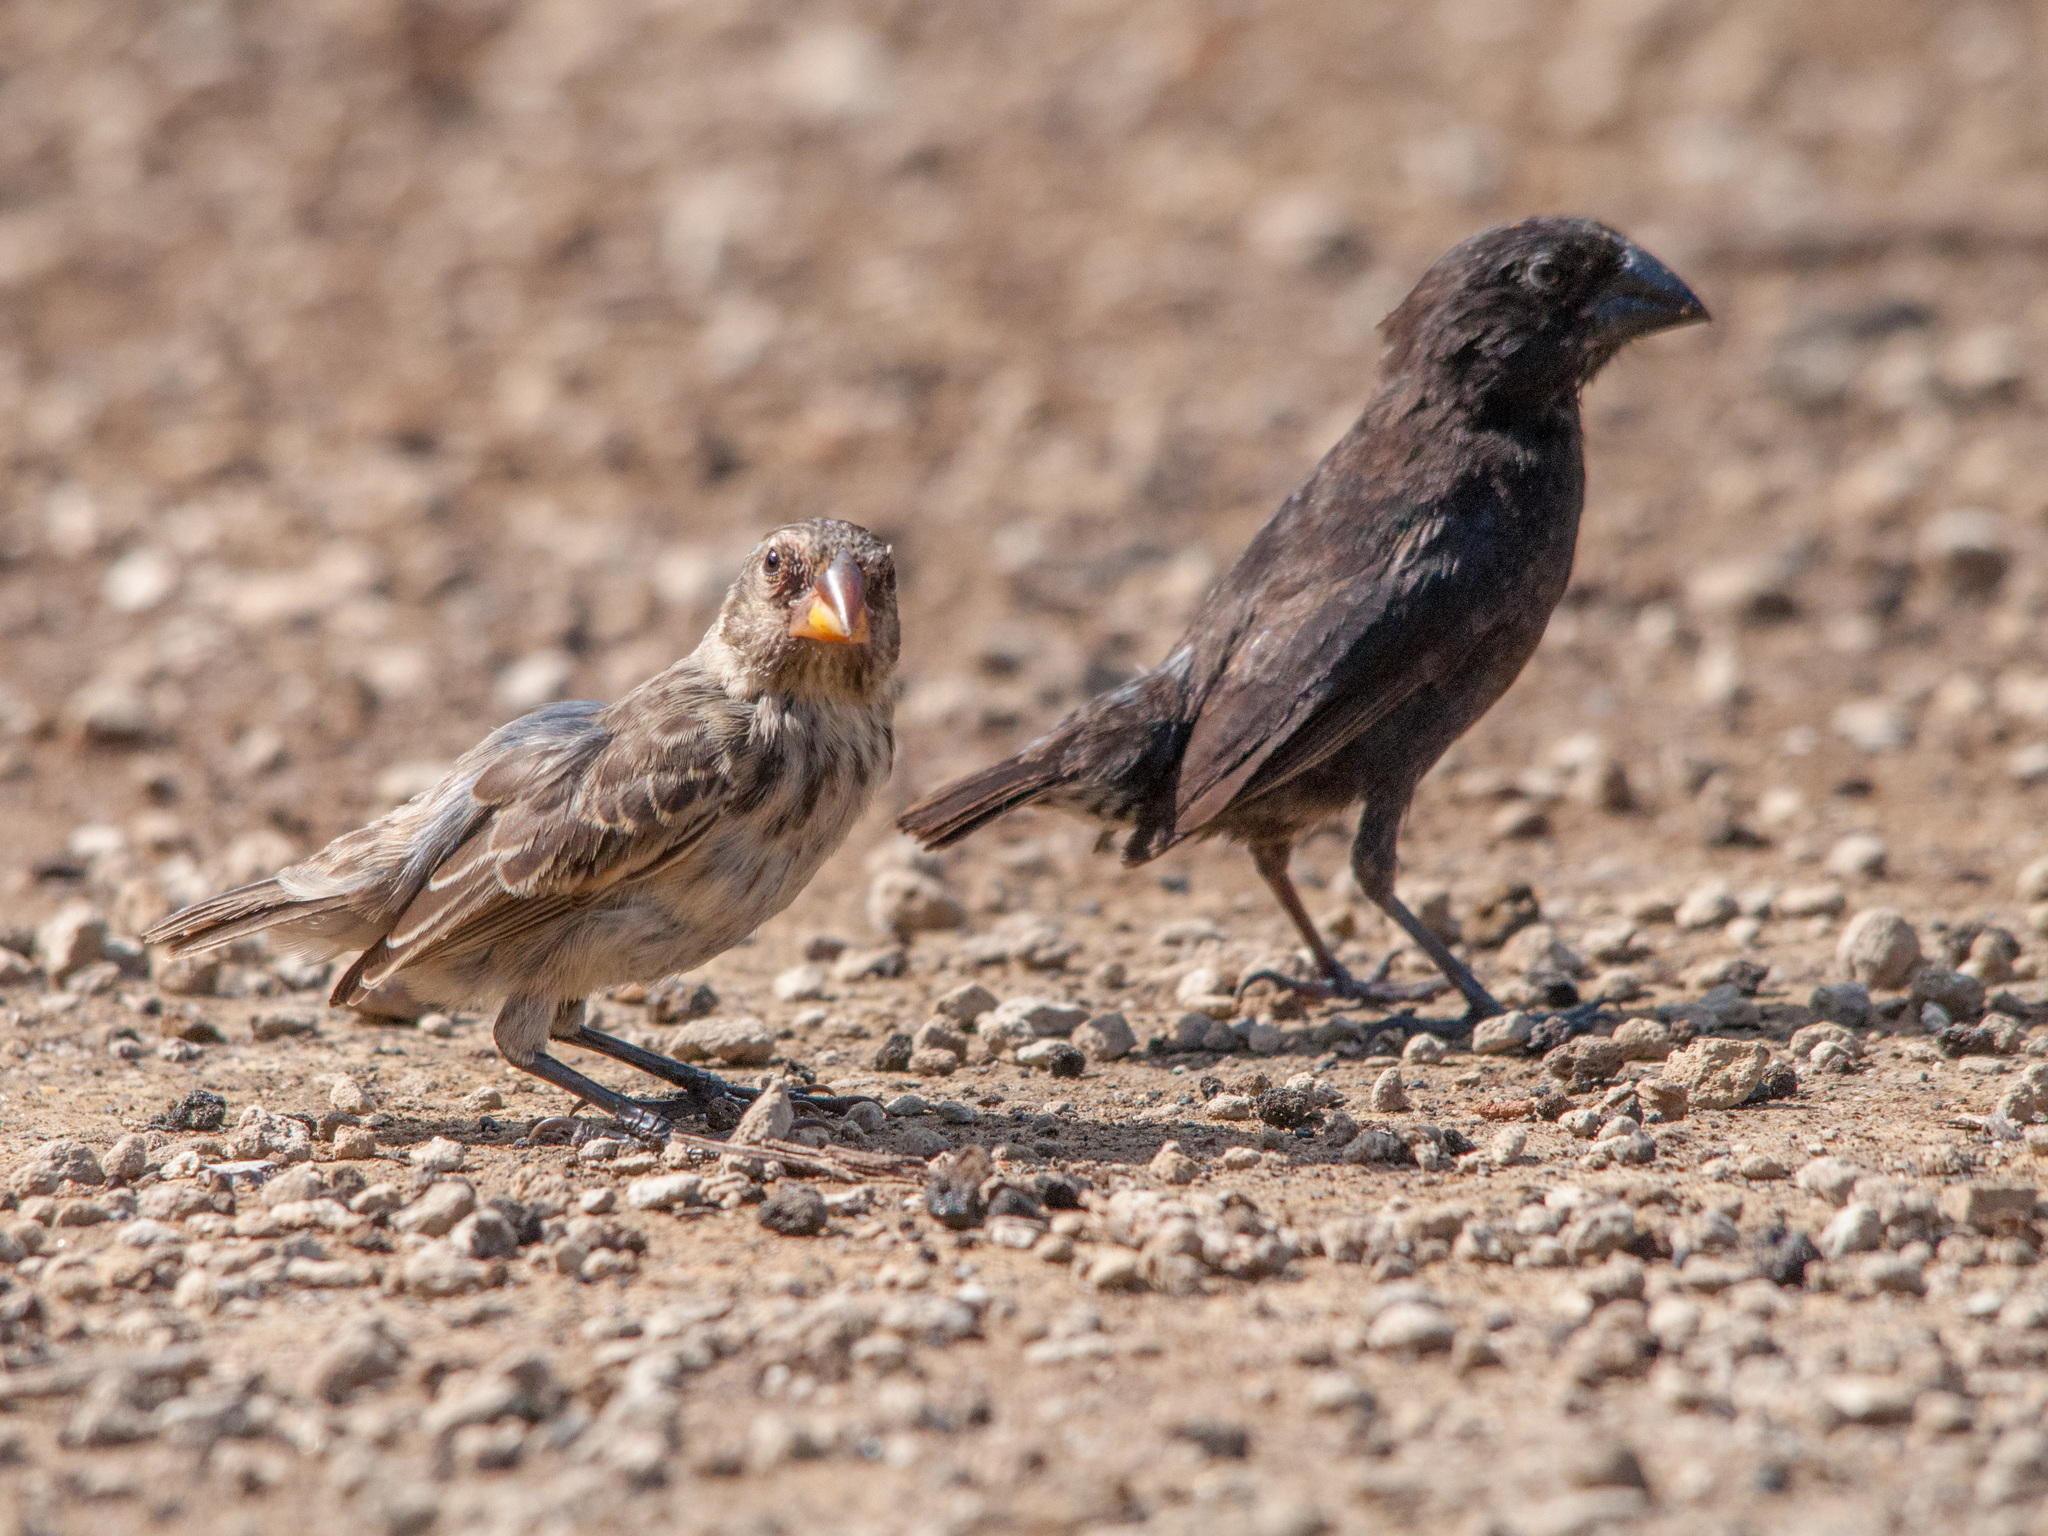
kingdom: Animalia
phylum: Chordata
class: Aves
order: Passeriformes
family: Thraupidae
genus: Geospiza
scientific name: Geospiza fortis
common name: Medium ground finch
